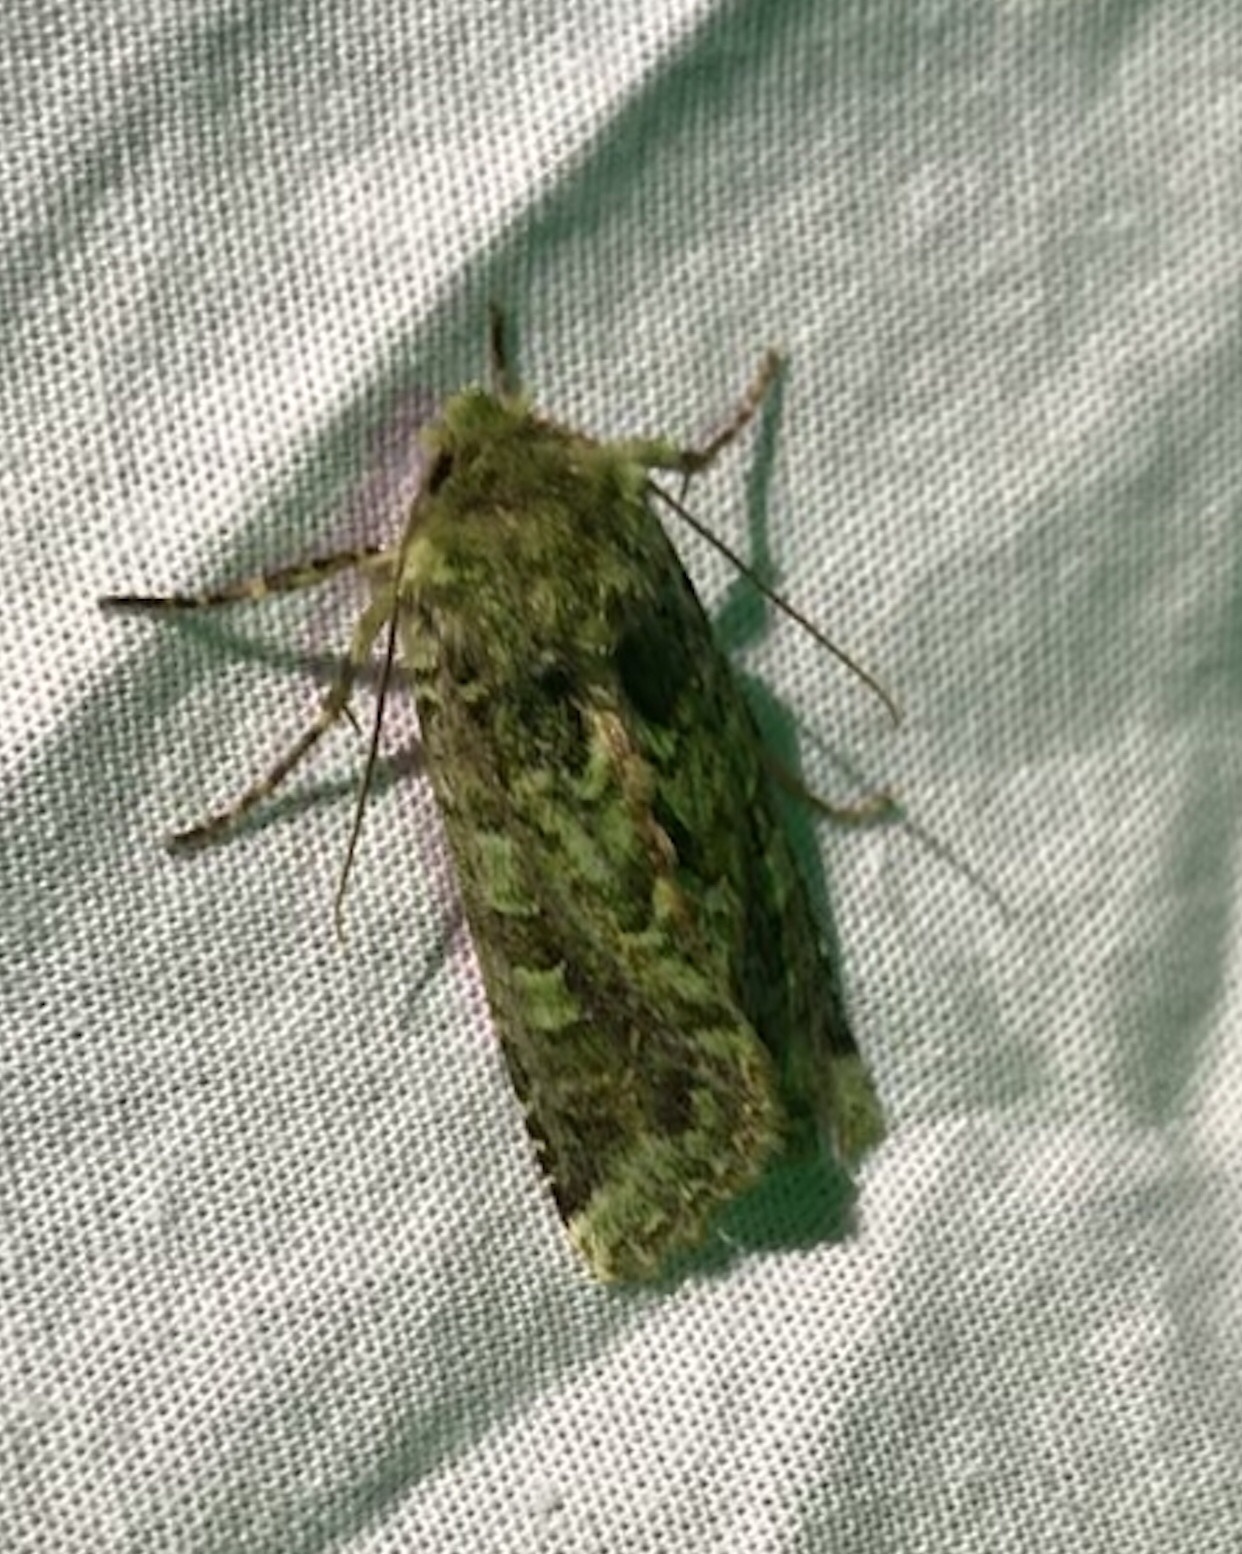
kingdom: Animalia
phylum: Arthropoda
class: Insecta
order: Lepidoptera
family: Noctuidae
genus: Feredayia
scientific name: Feredayia grammosa
